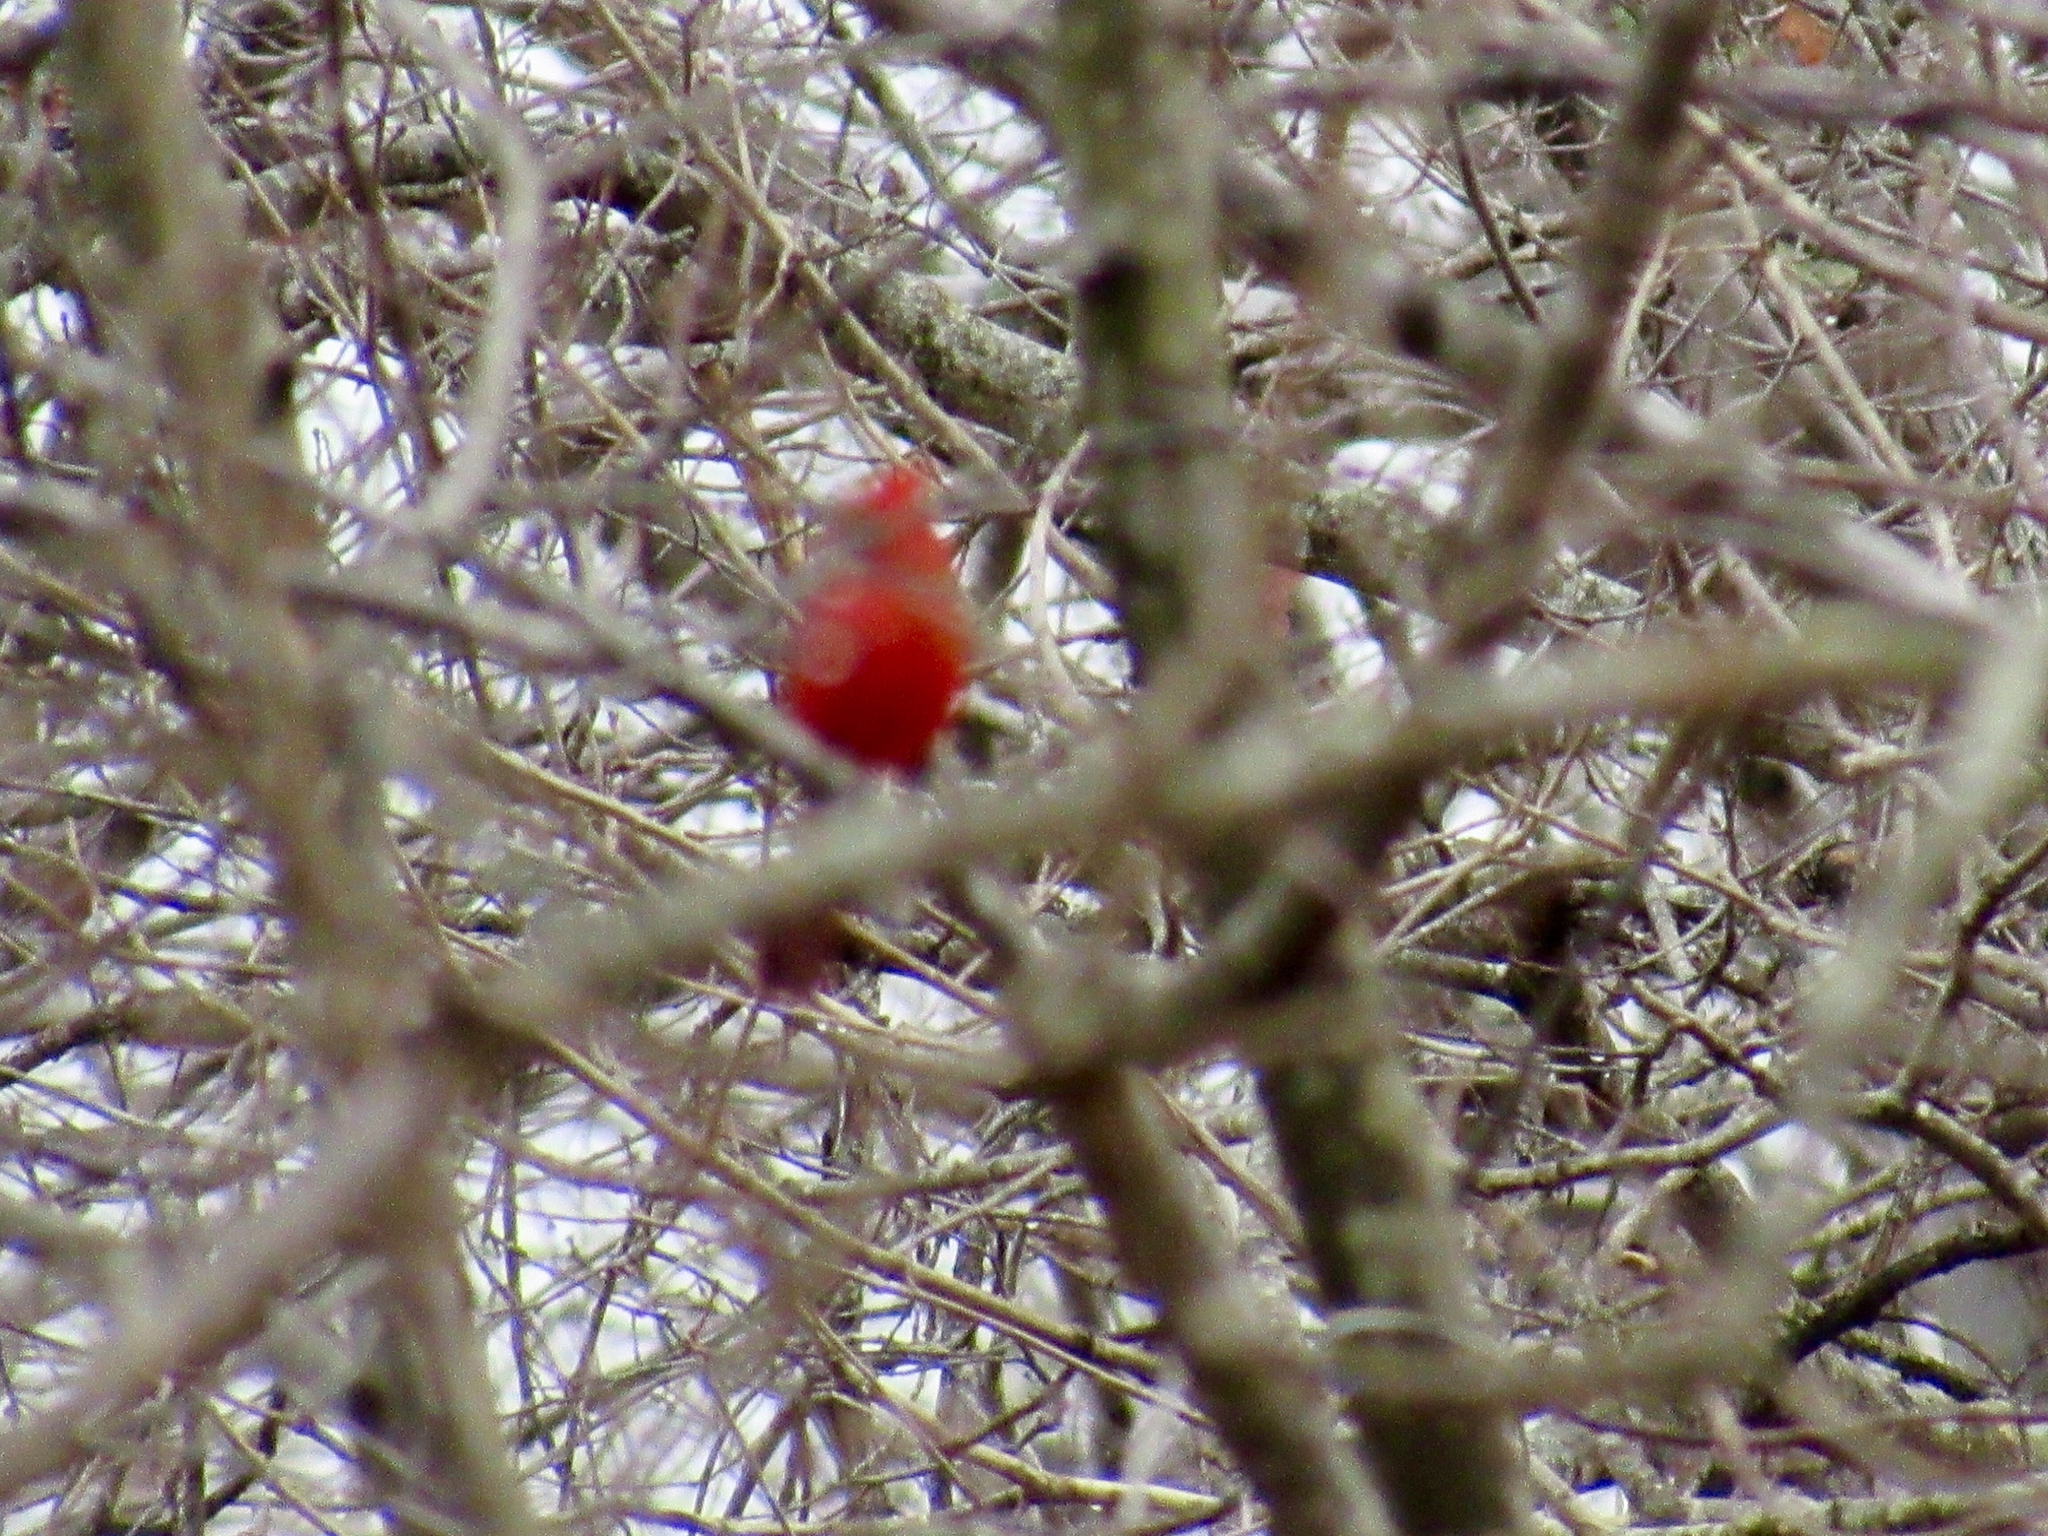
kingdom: Animalia
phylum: Chordata
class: Aves
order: Passeriformes
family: Cardinalidae
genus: Cardinalis
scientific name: Cardinalis cardinalis
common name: Northern cardinal
